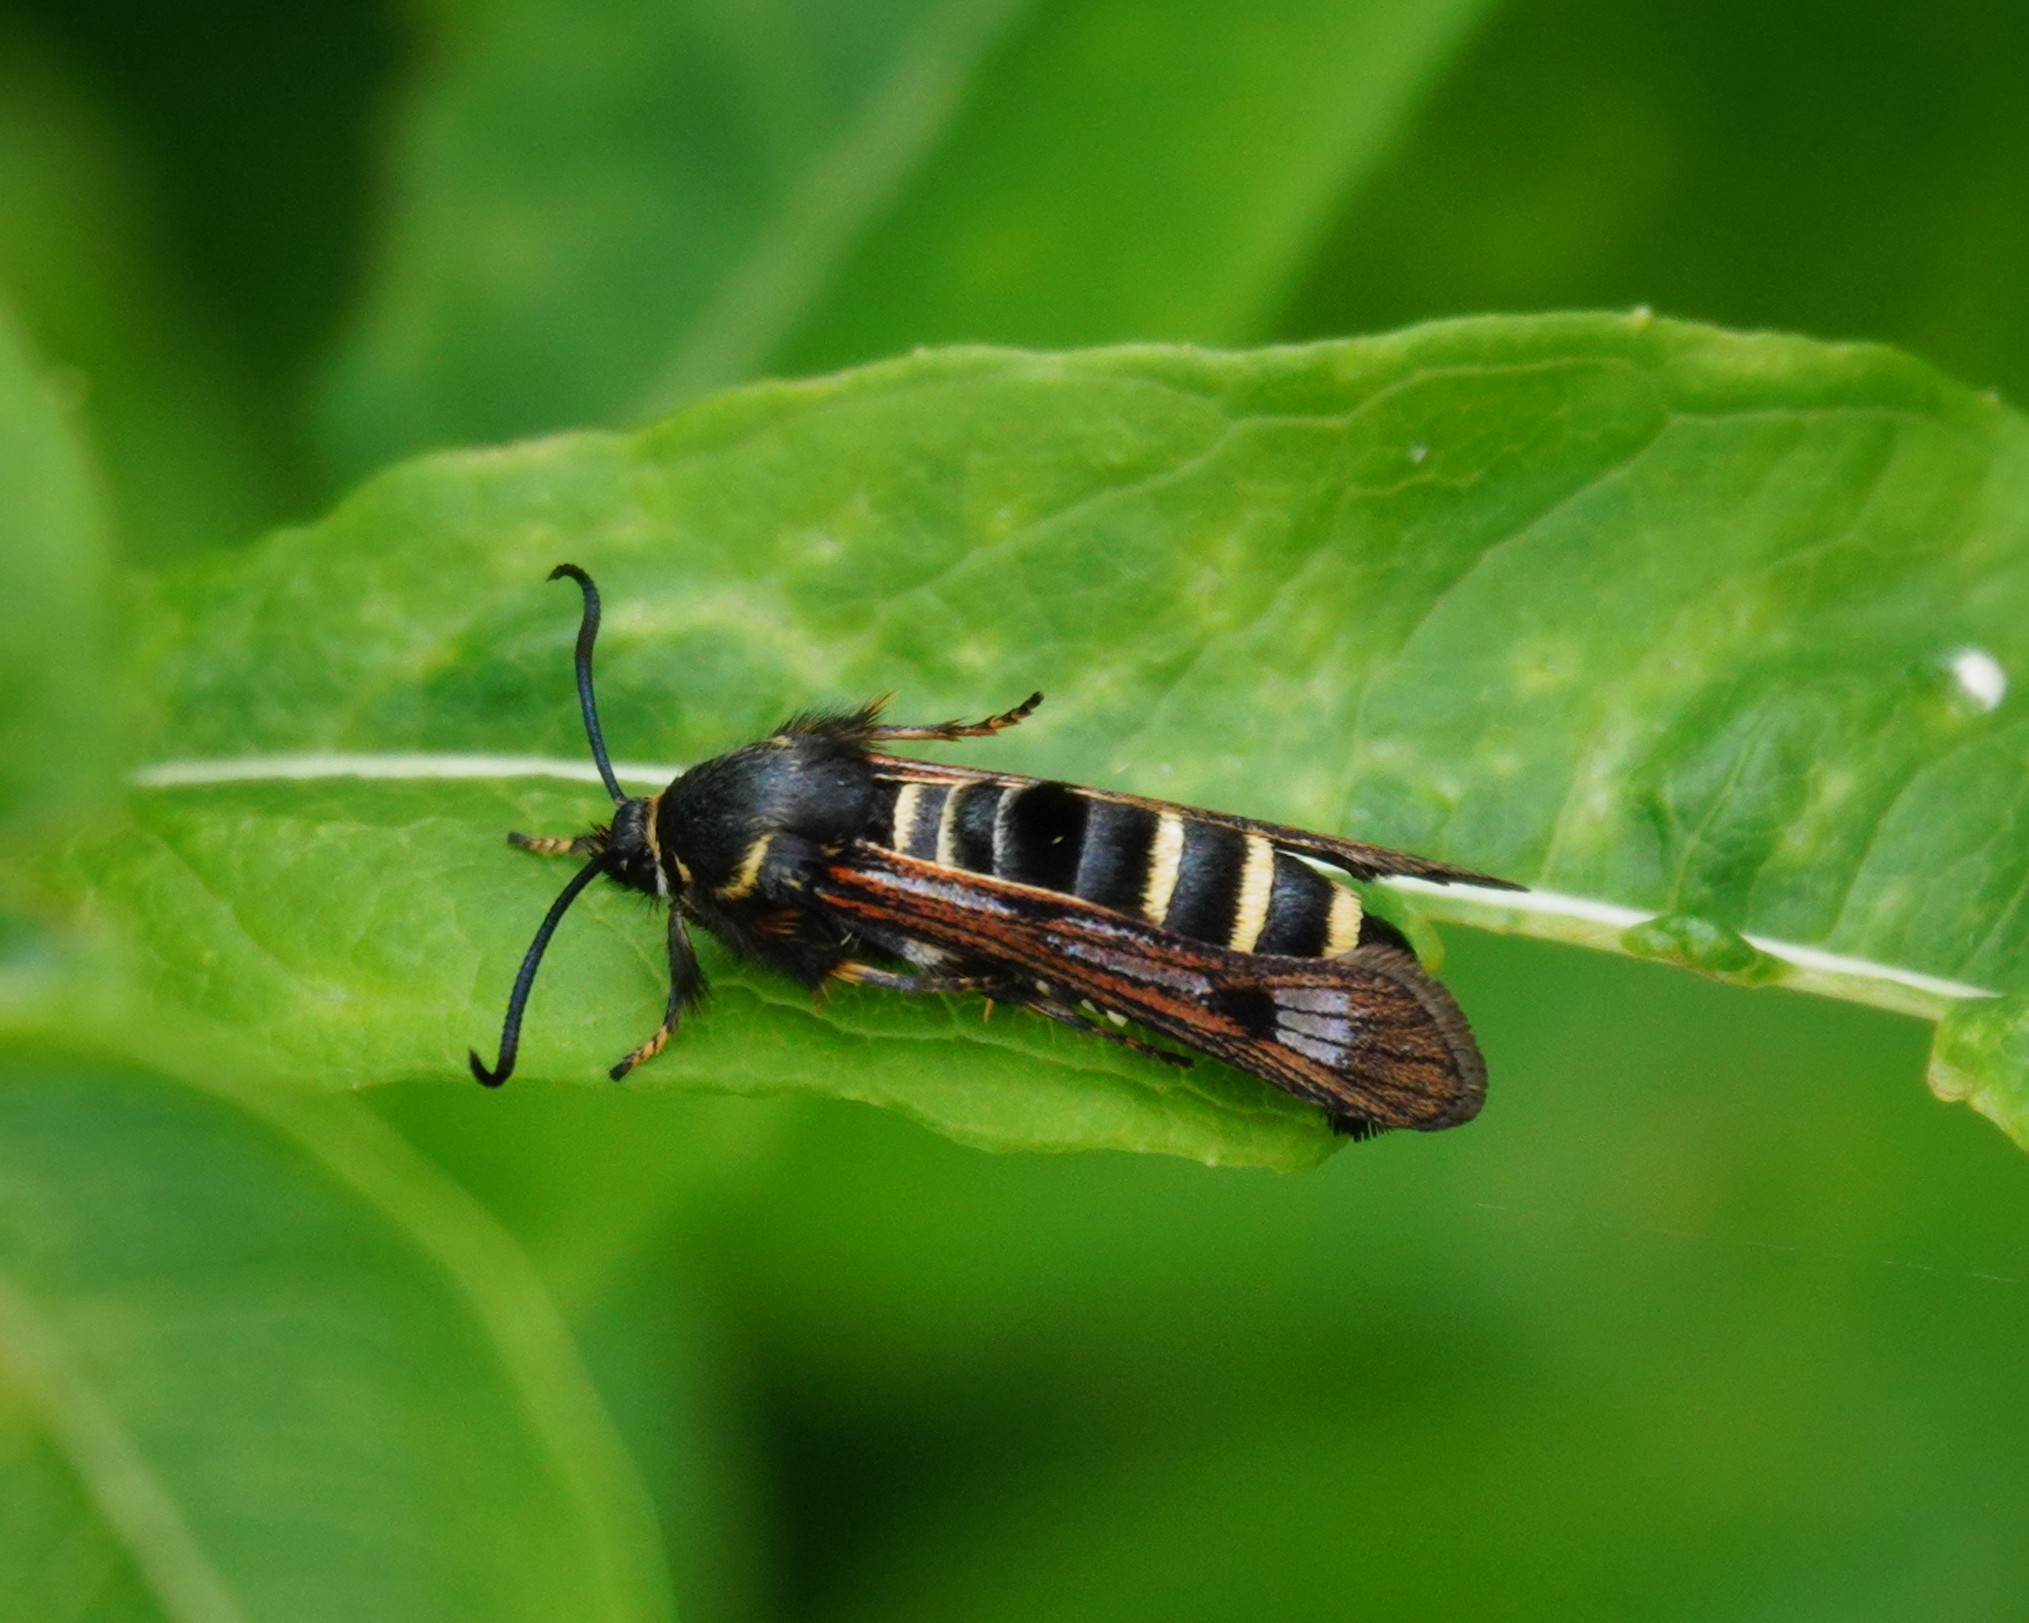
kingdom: Animalia
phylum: Arthropoda
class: Insecta
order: Lepidoptera
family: Sesiidae
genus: Pennisetia
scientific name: Pennisetia hylaeiformis
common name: Raspberry clearwing
